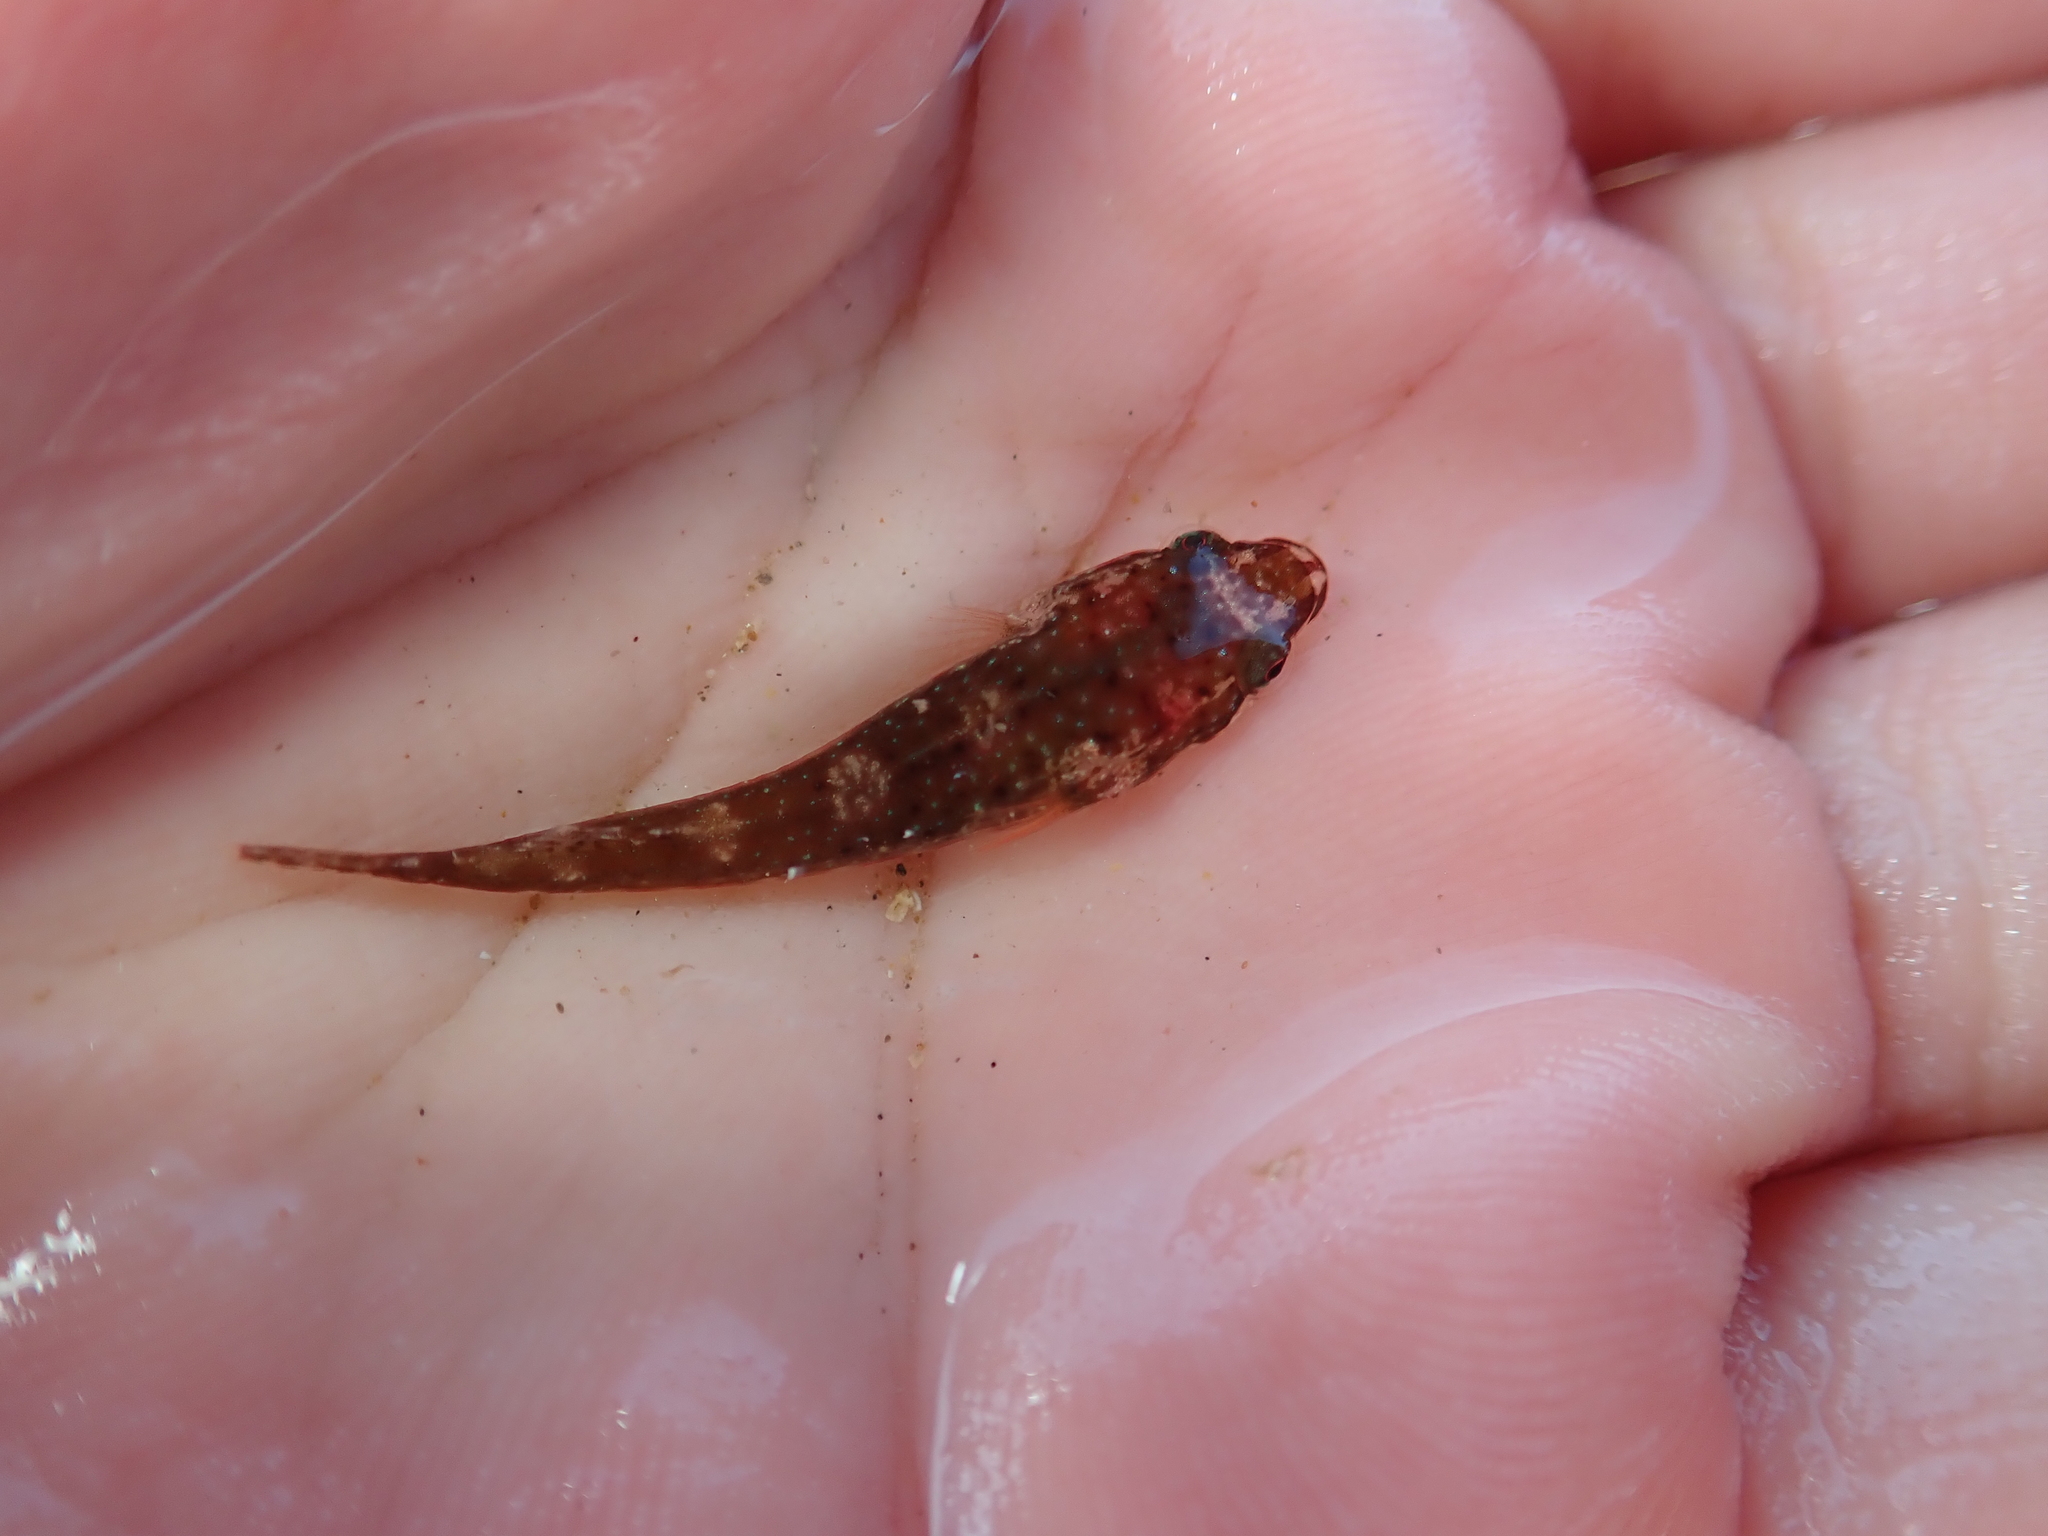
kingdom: Animalia
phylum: Chordata
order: Gobiesociformes
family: Gobiesocidae
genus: Apletodon
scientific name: Apletodon dentatus
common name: Small-headed clingfish
